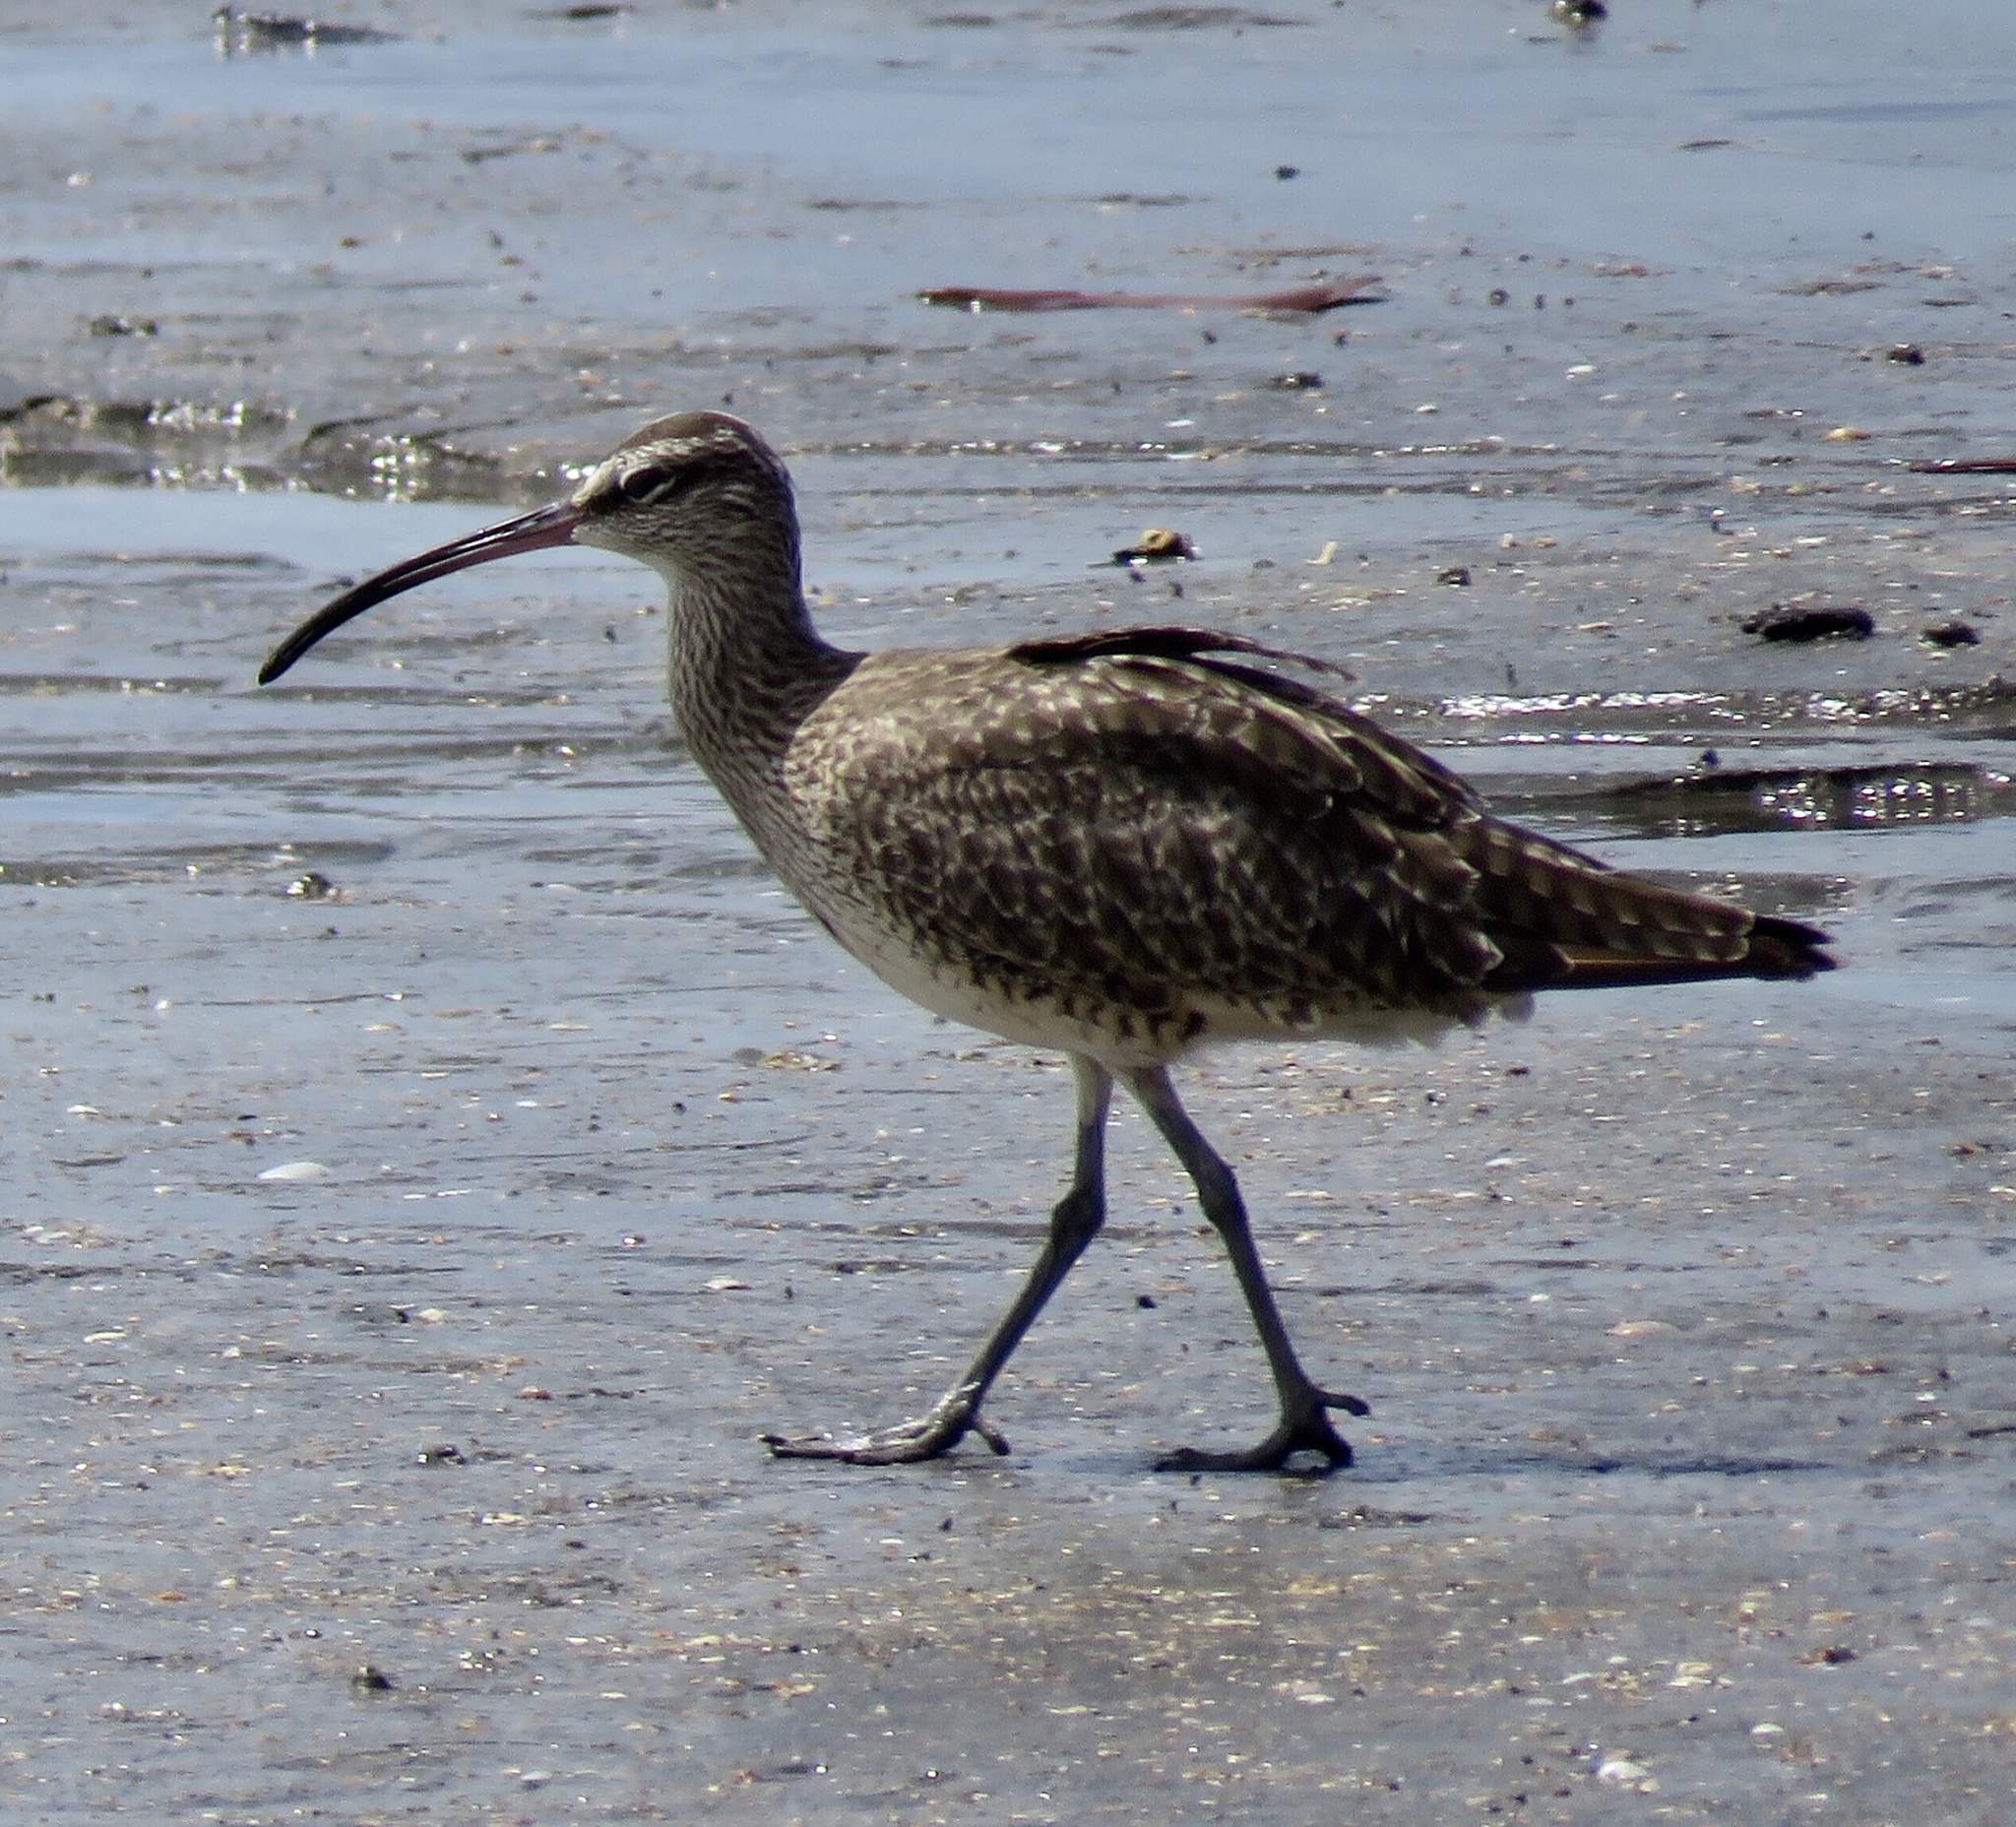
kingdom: Animalia
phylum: Chordata
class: Aves
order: Charadriiformes
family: Scolopacidae
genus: Numenius
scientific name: Numenius phaeopus
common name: Whimbrel
